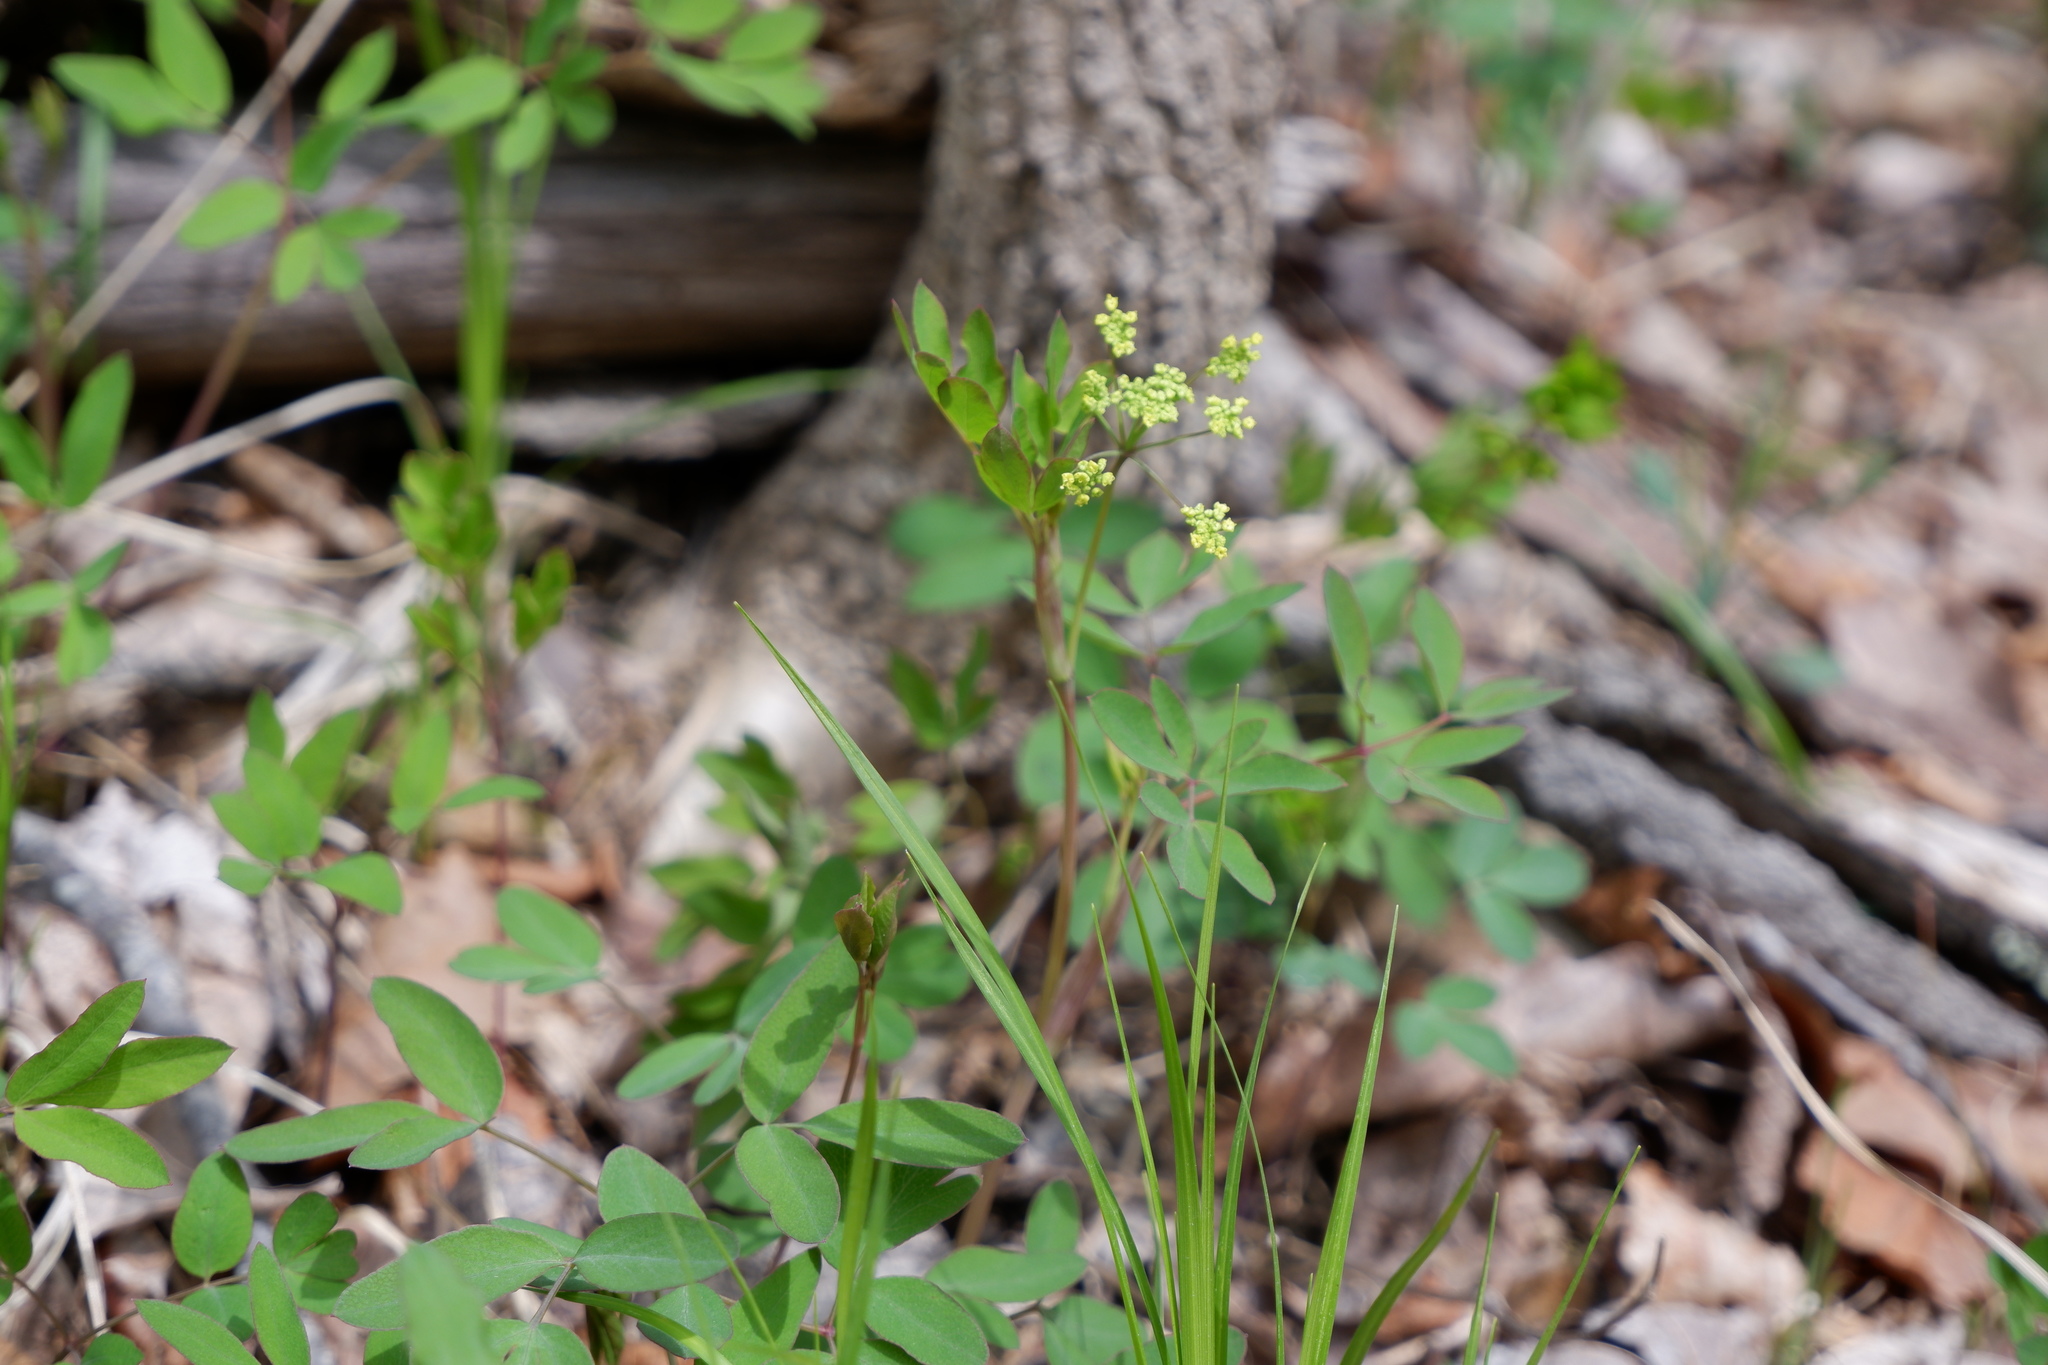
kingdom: Plantae
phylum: Tracheophyta
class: Magnoliopsida
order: Apiales
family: Apiaceae
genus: Taenidia
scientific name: Taenidia integerrima
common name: Golden alexander
